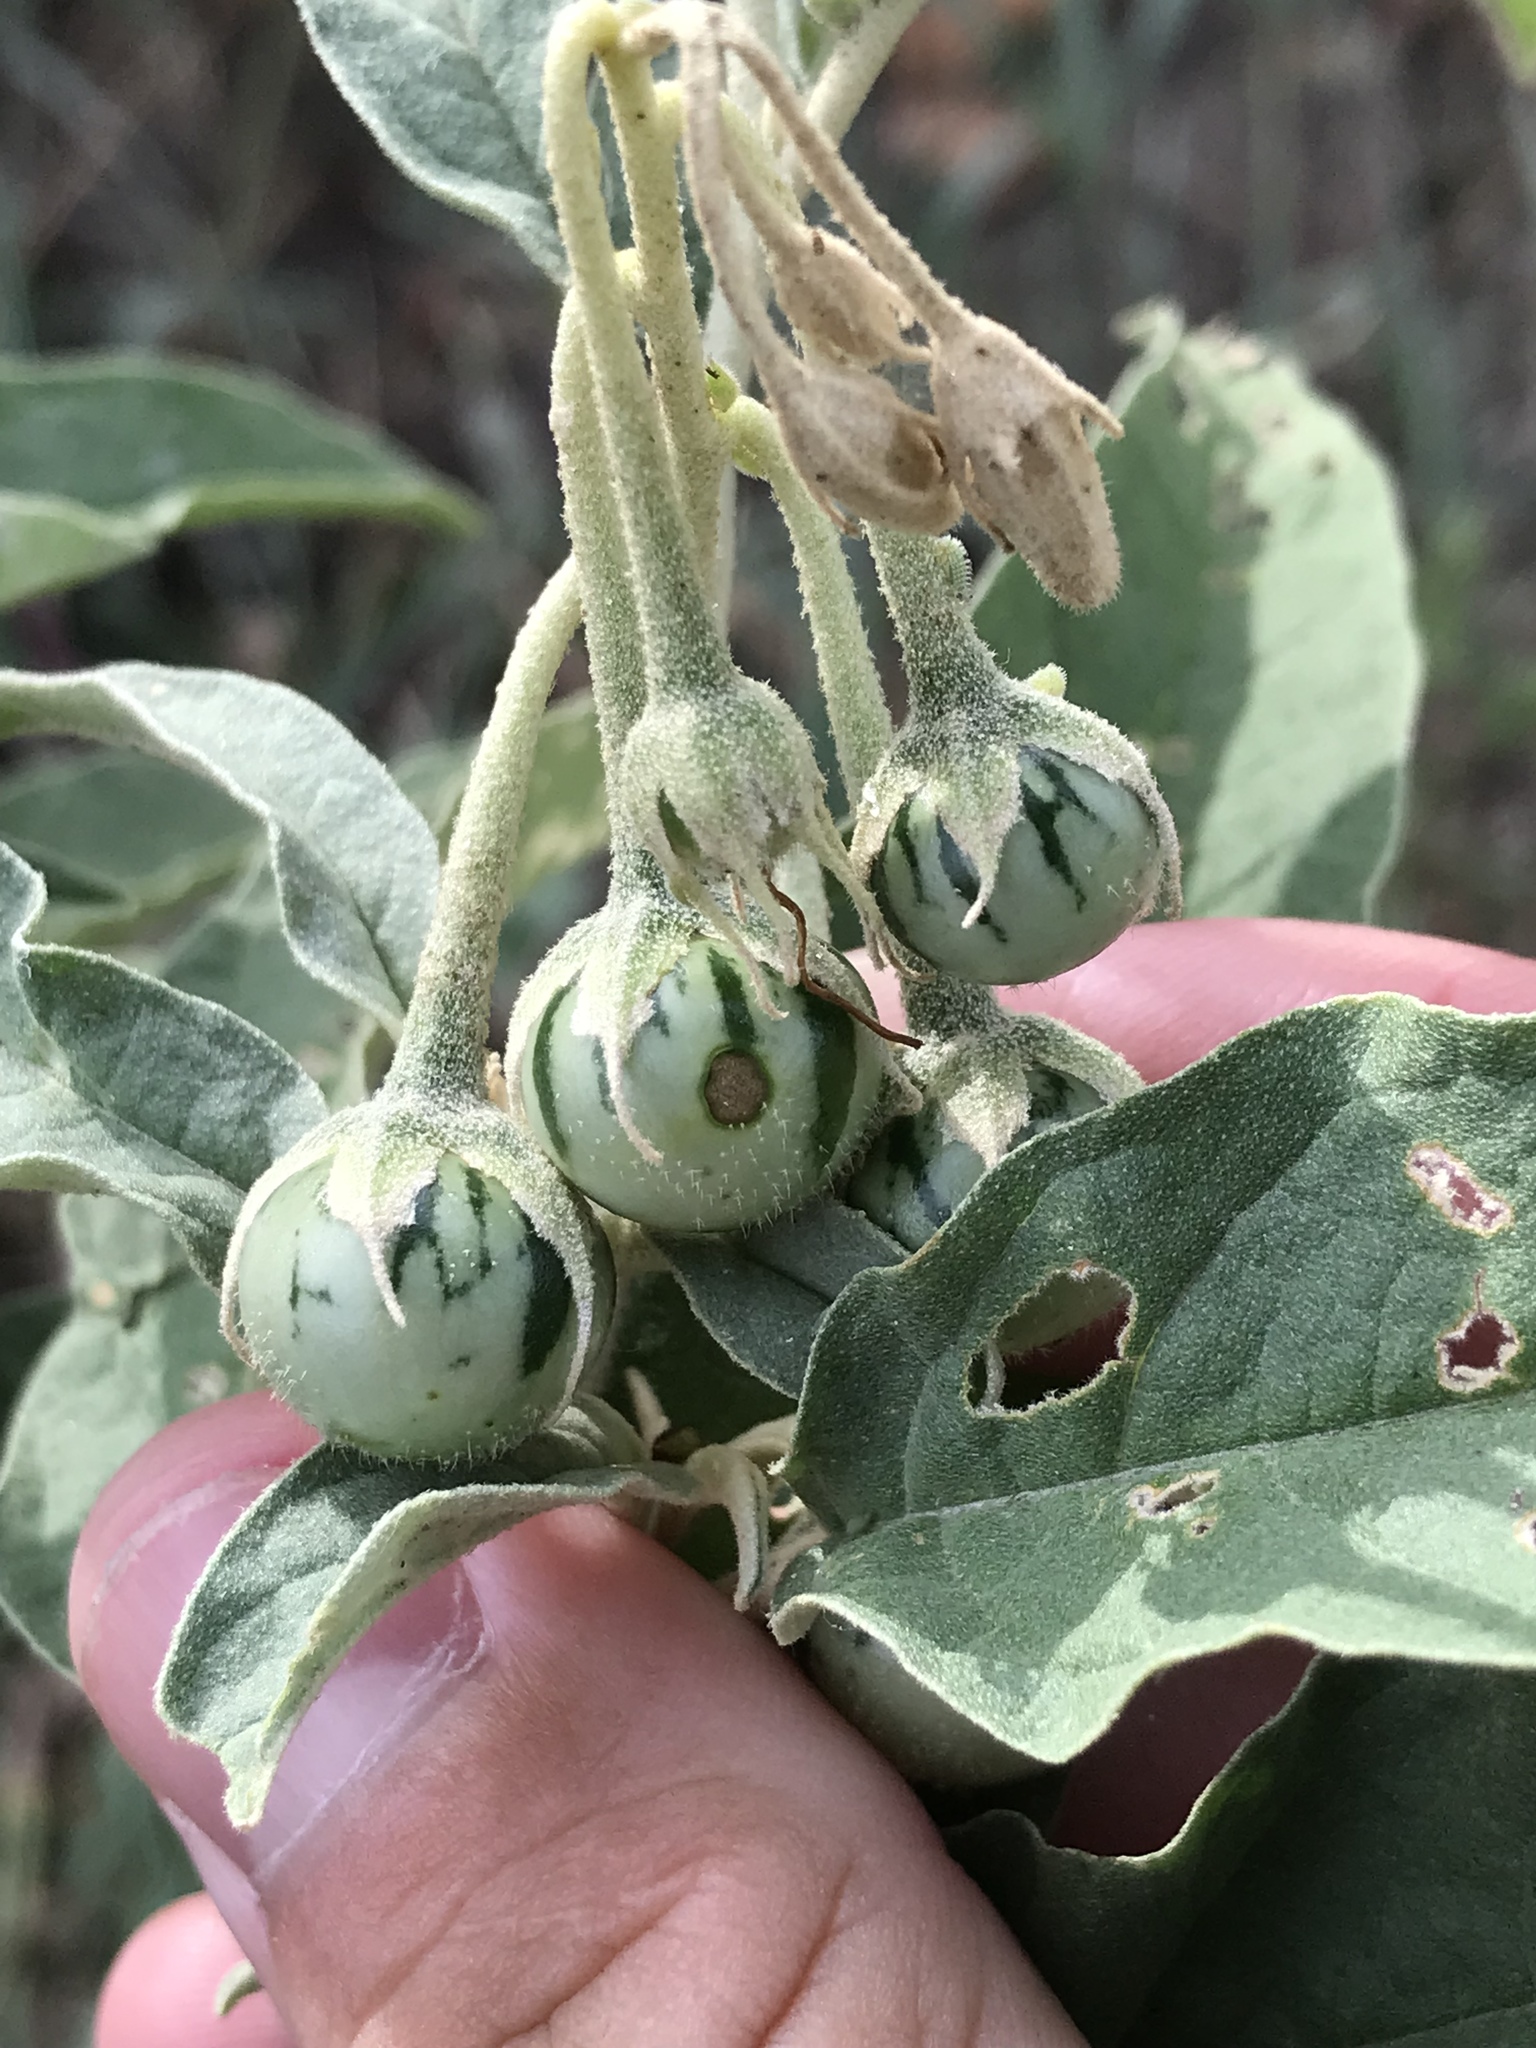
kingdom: Plantae
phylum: Tracheophyta
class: Magnoliopsida
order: Solanales
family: Solanaceae
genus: Solanum
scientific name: Solanum elaeagnifolium
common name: Silverleaf nightshade
